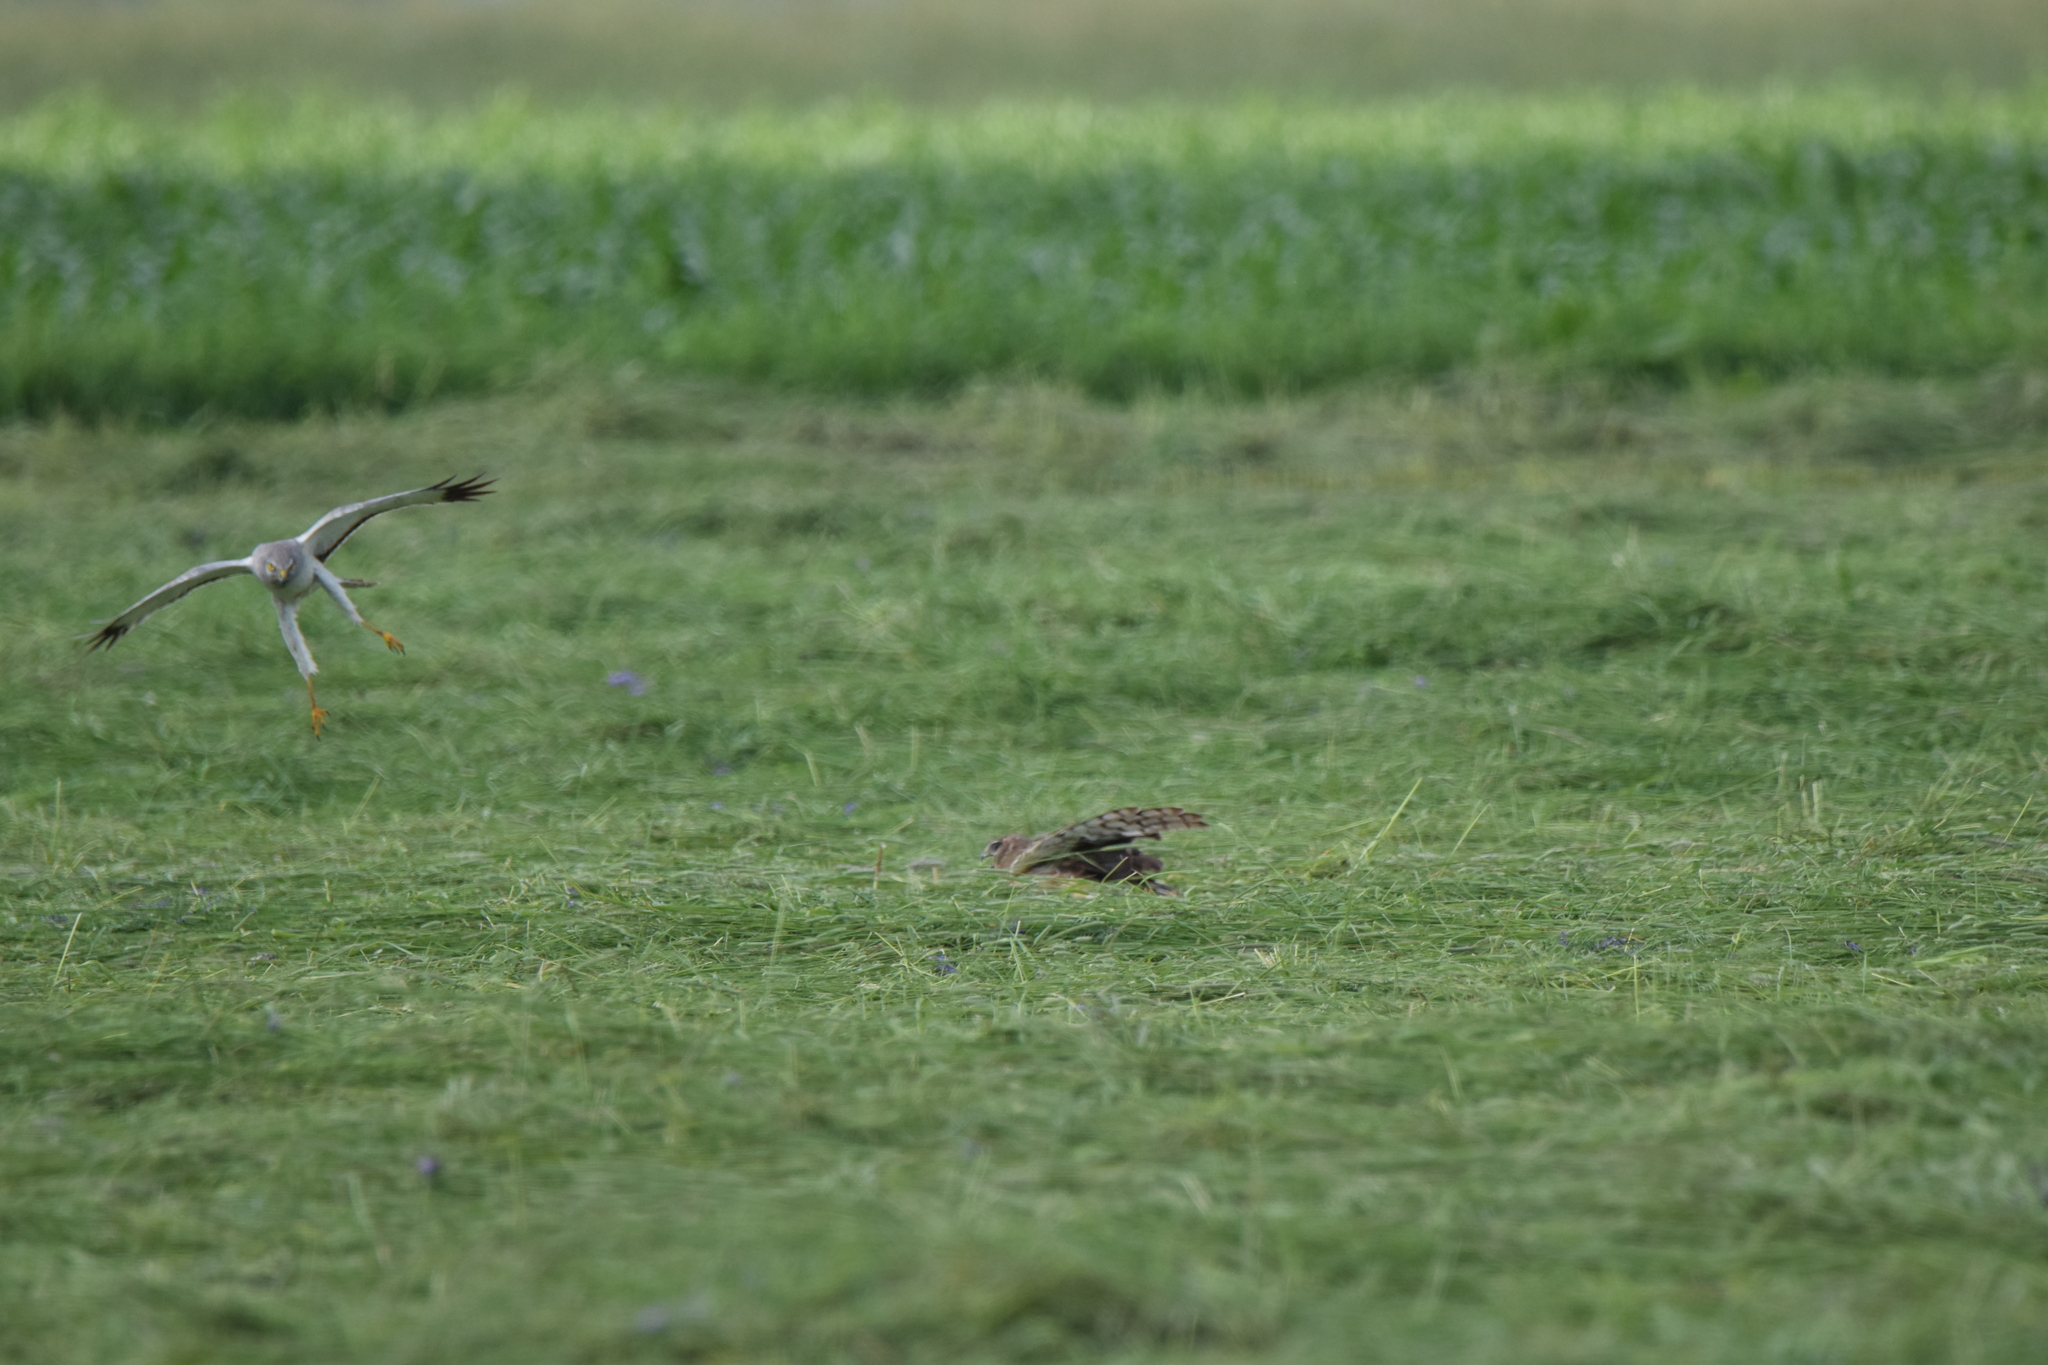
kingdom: Animalia
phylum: Chordata
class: Aves
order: Accipitriformes
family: Accipitridae
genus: Circus
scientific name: Circus cyaneus
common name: Hen harrier
